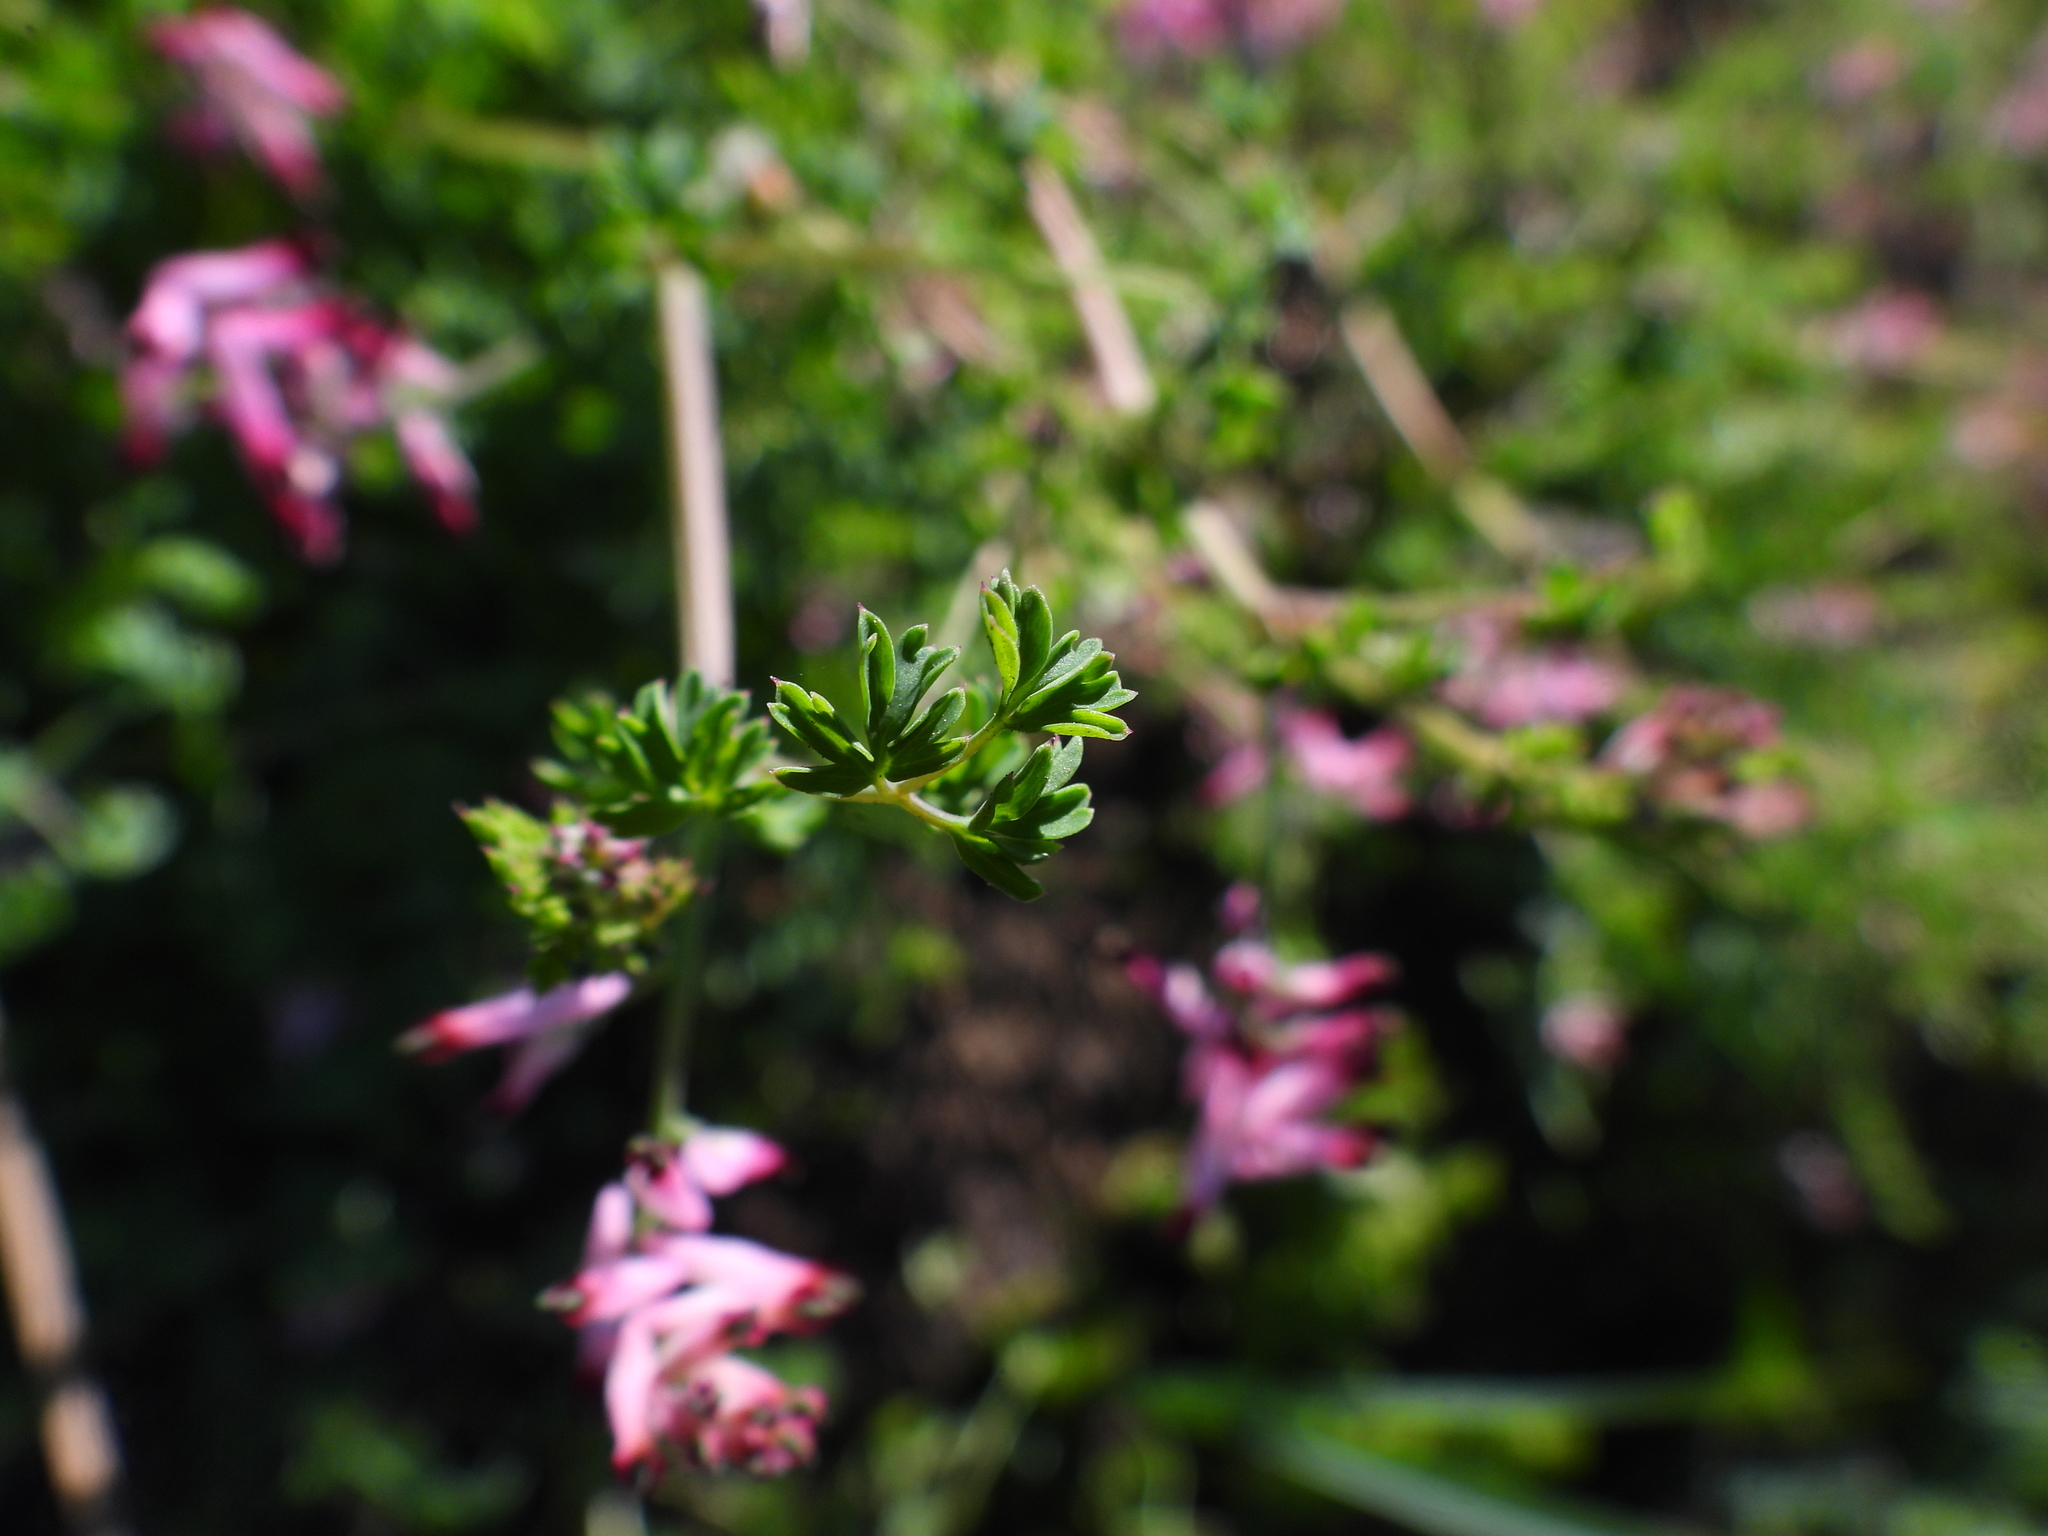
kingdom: Plantae
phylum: Tracheophyta
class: Magnoliopsida
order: Ranunculales
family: Papaveraceae
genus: Fumaria
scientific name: Fumaria muralis
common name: Common ramping-fumitory
